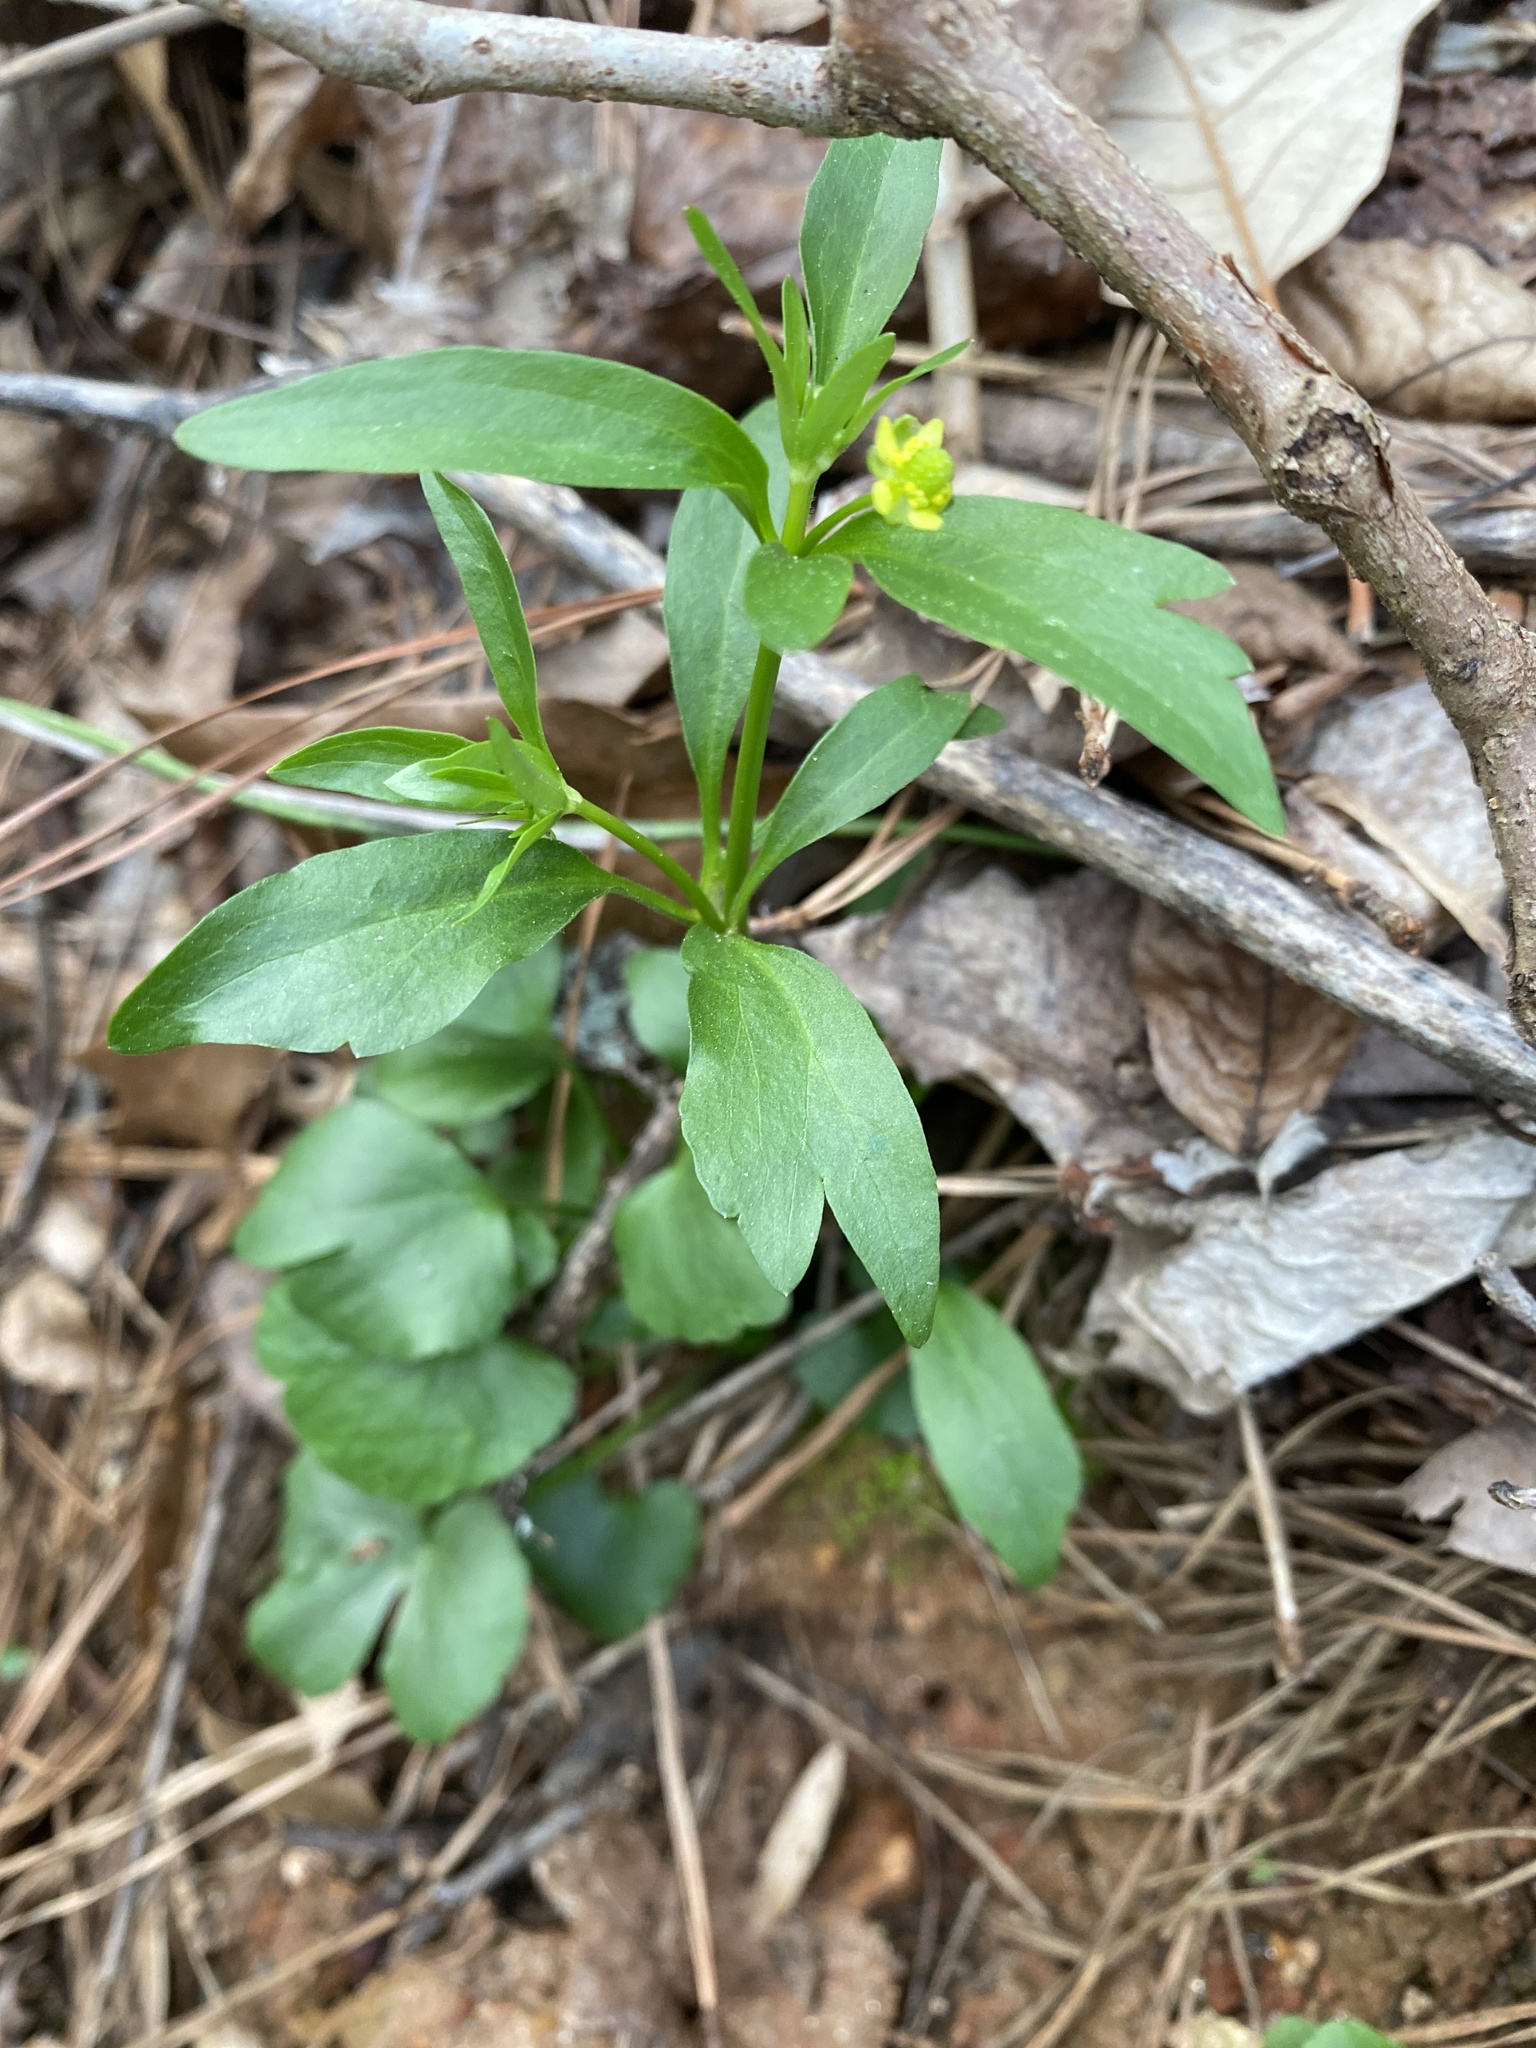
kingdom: Plantae
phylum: Tracheophyta
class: Magnoliopsida
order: Ranunculales
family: Ranunculaceae
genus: Ranunculus
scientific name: Ranunculus abortivus
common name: Early wood buttercup
